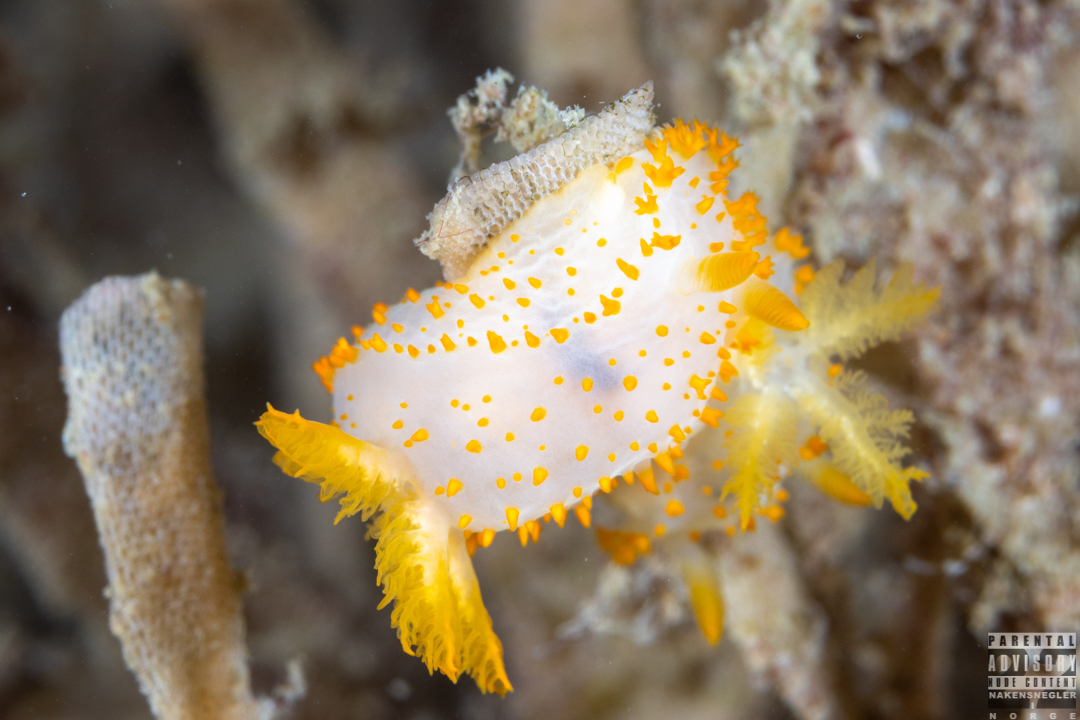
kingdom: Animalia
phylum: Mollusca
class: Gastropoda
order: Nudibranchia
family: Polyceridae
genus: Crimora
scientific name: Crimora papillata
